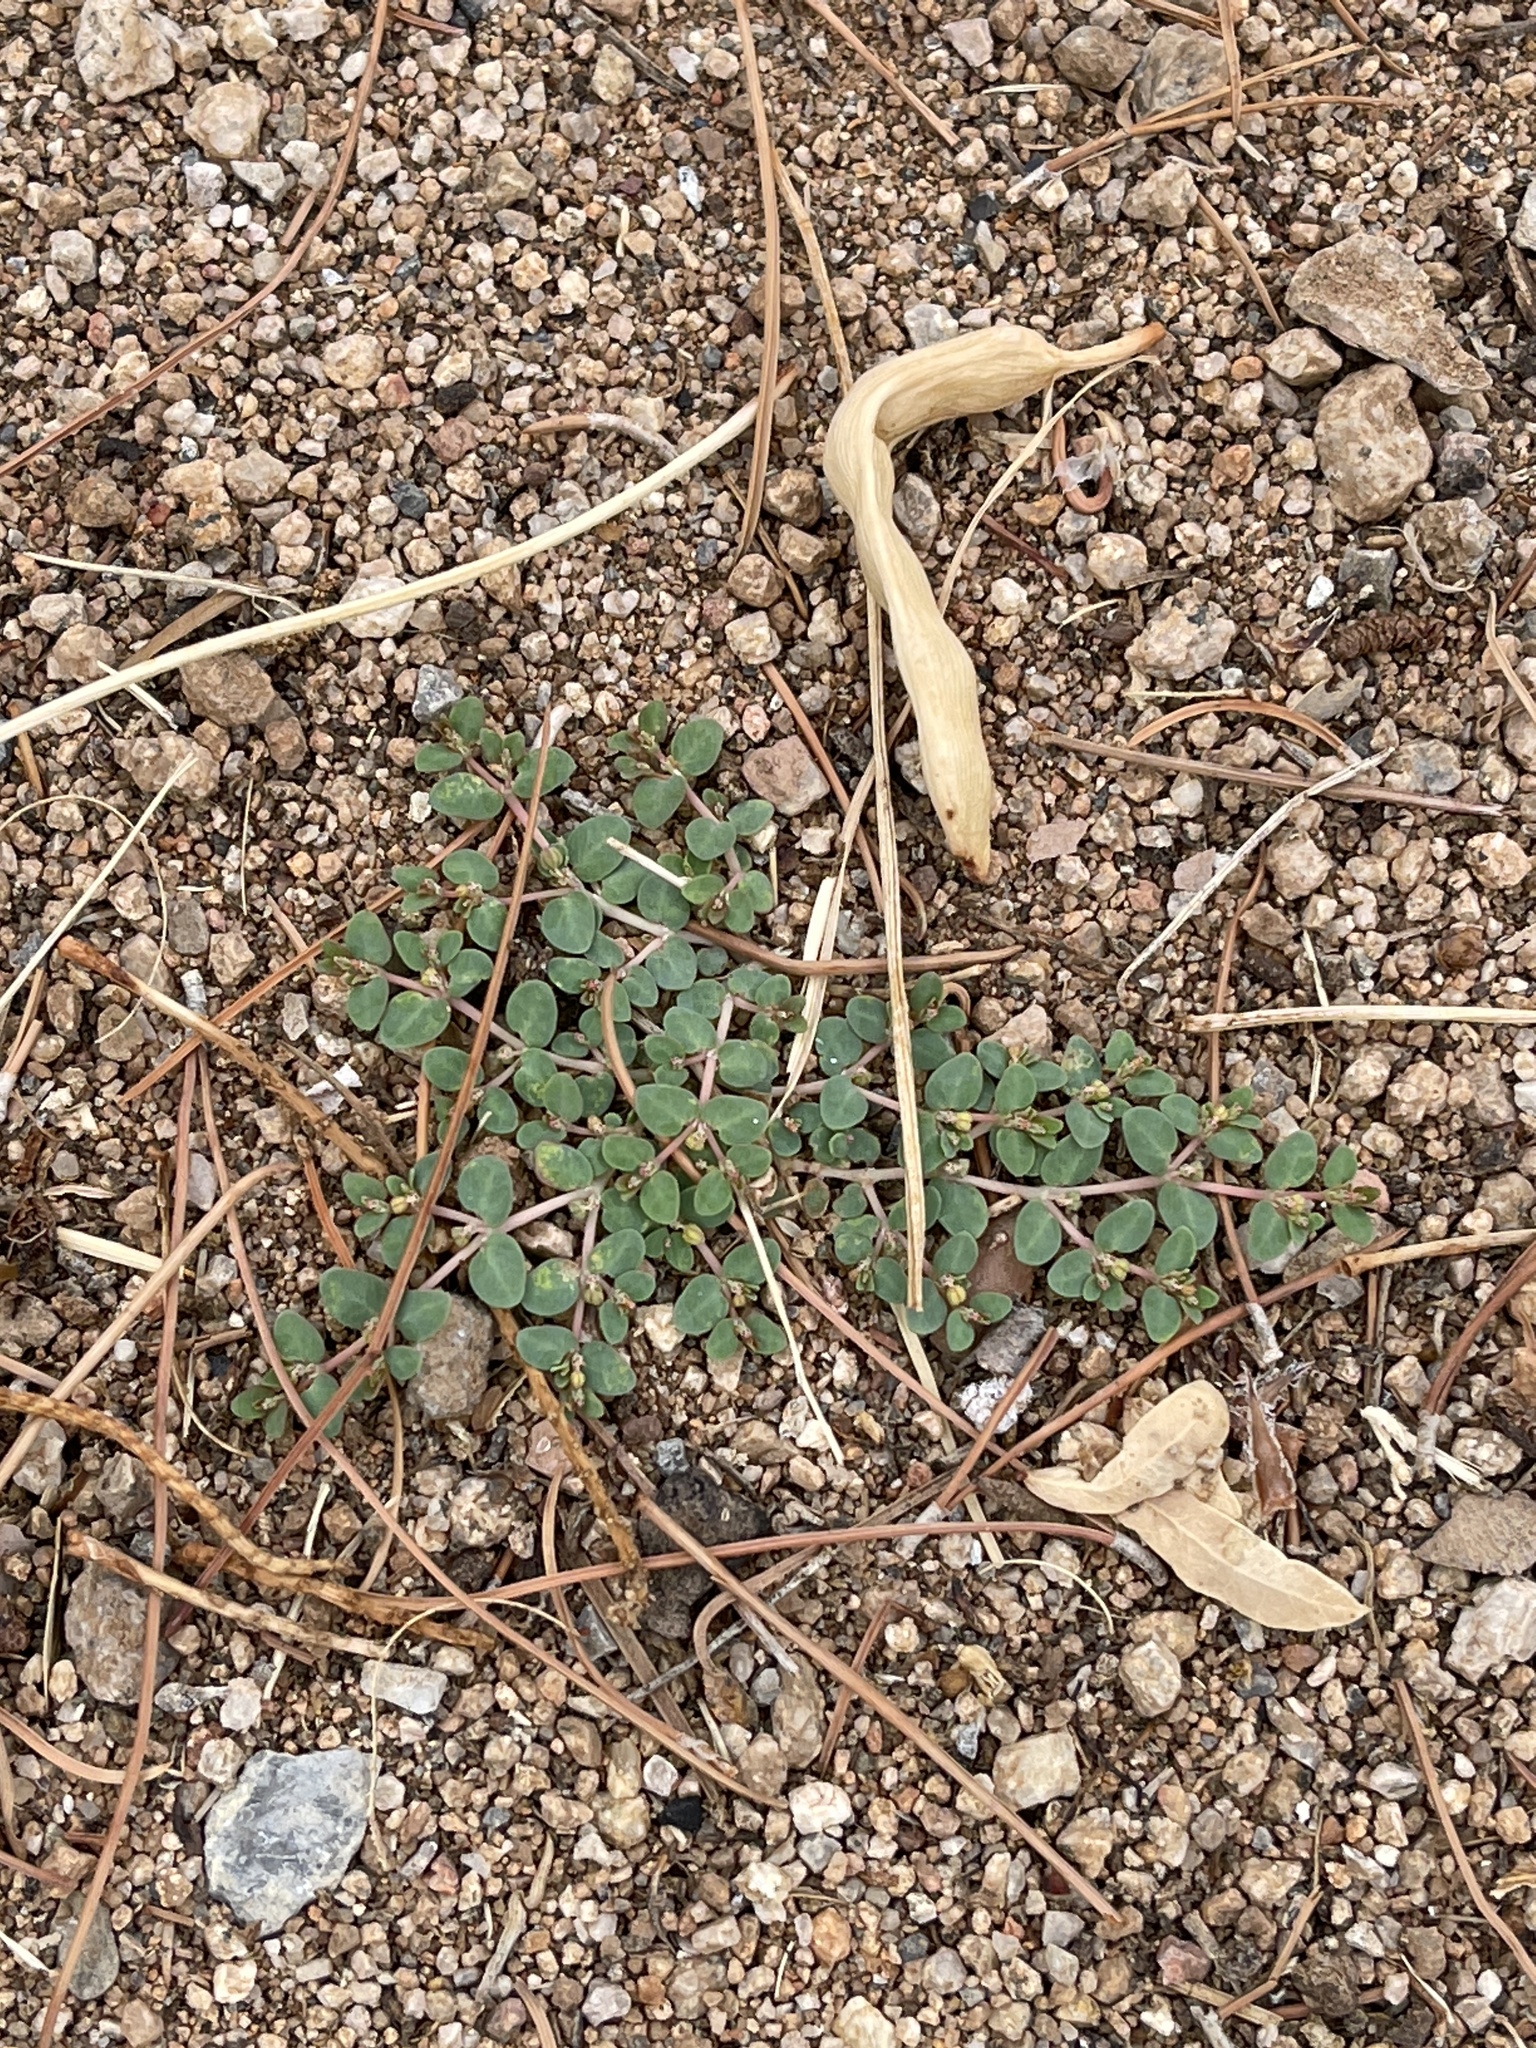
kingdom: Plantae
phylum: Tracheophyta
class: Magnoliopsida
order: Malpighiales
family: Euphorbiaceae
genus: Euphorbia
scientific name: Euphorbia micromera
